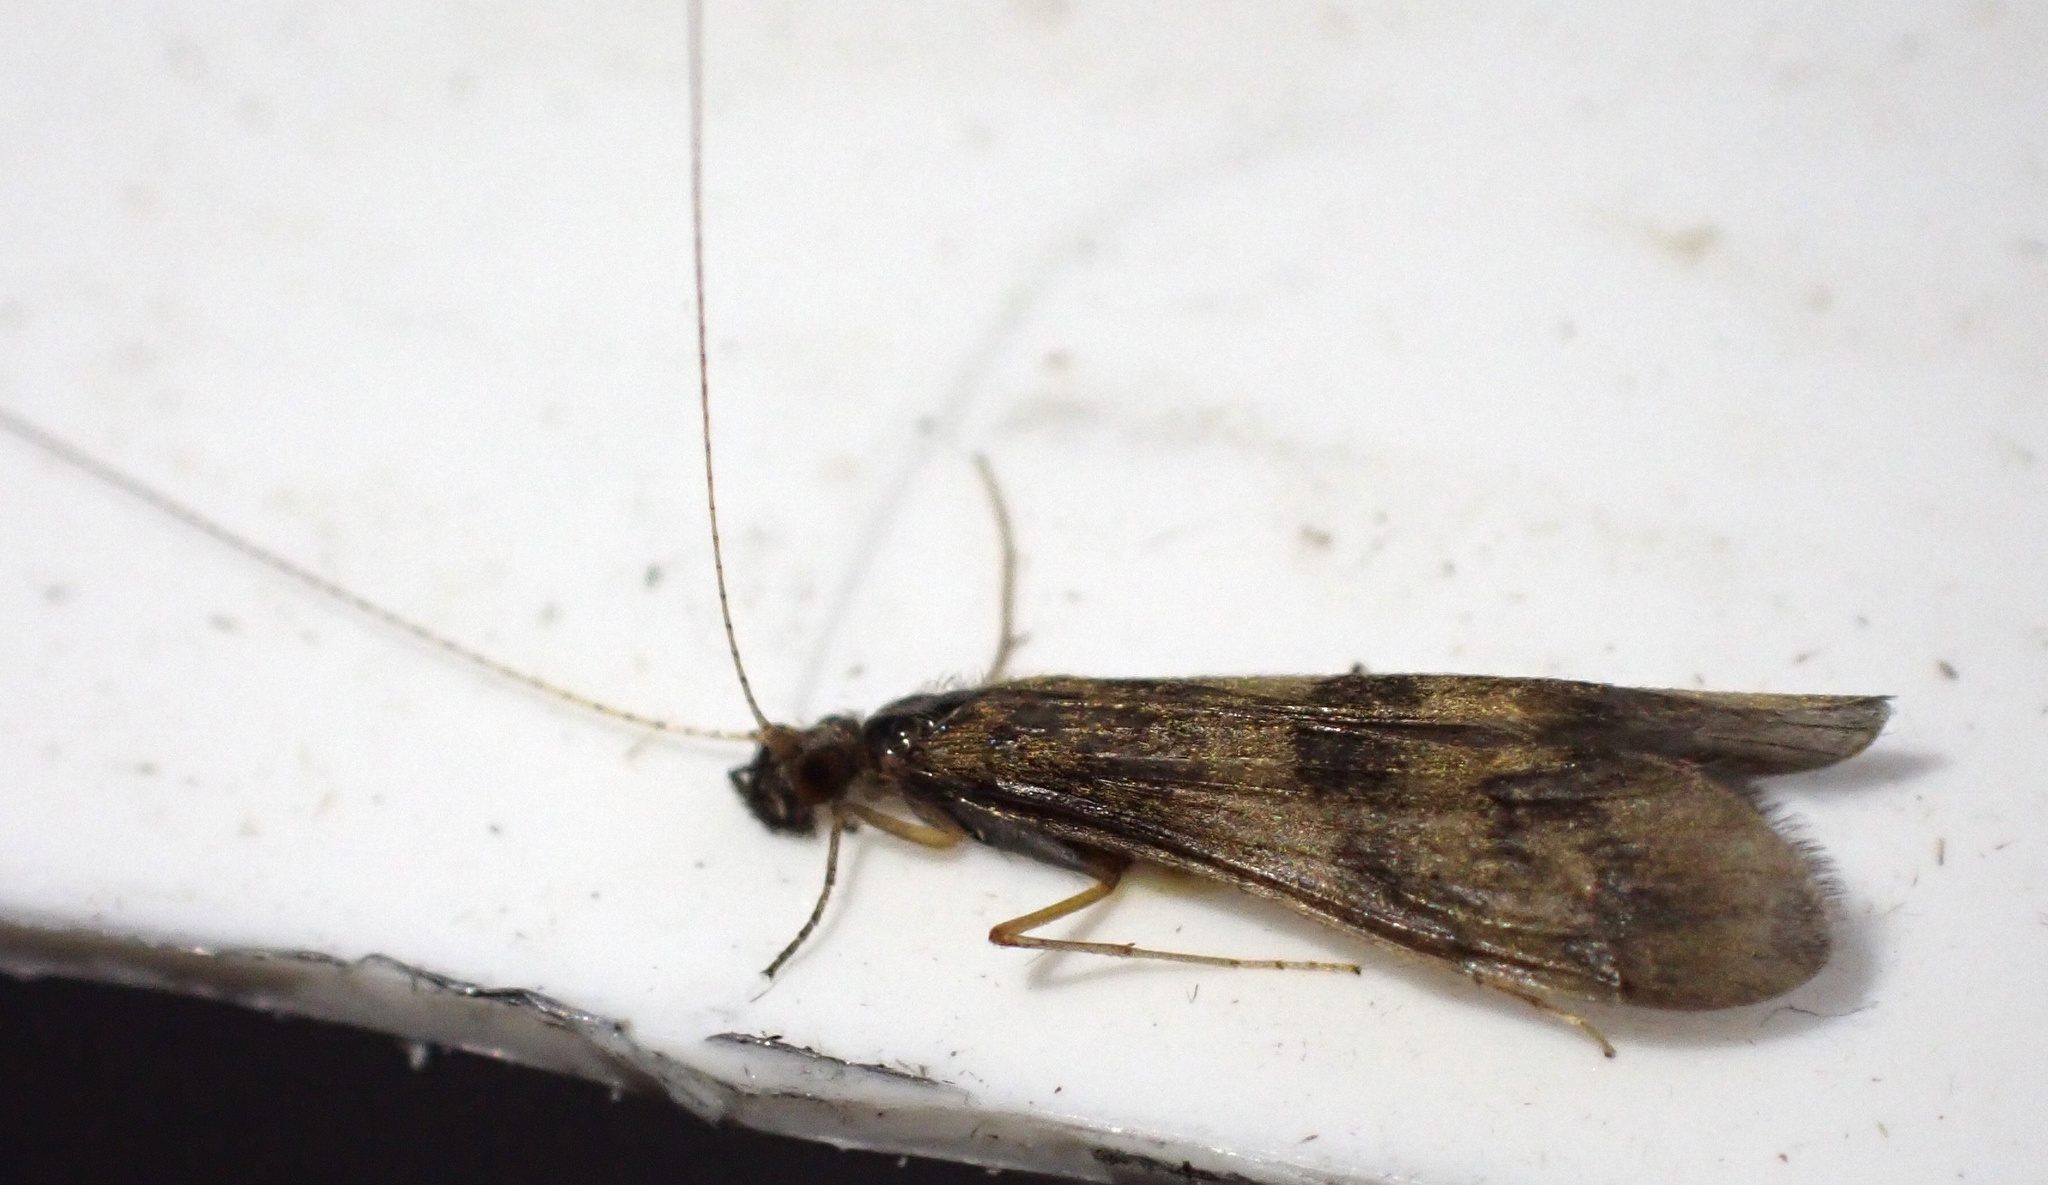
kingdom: Animalia
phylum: Arthropoda
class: Insecta
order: Trichoptera
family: Leptoceridae
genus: Mystacides
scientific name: Mystacides longicornis
